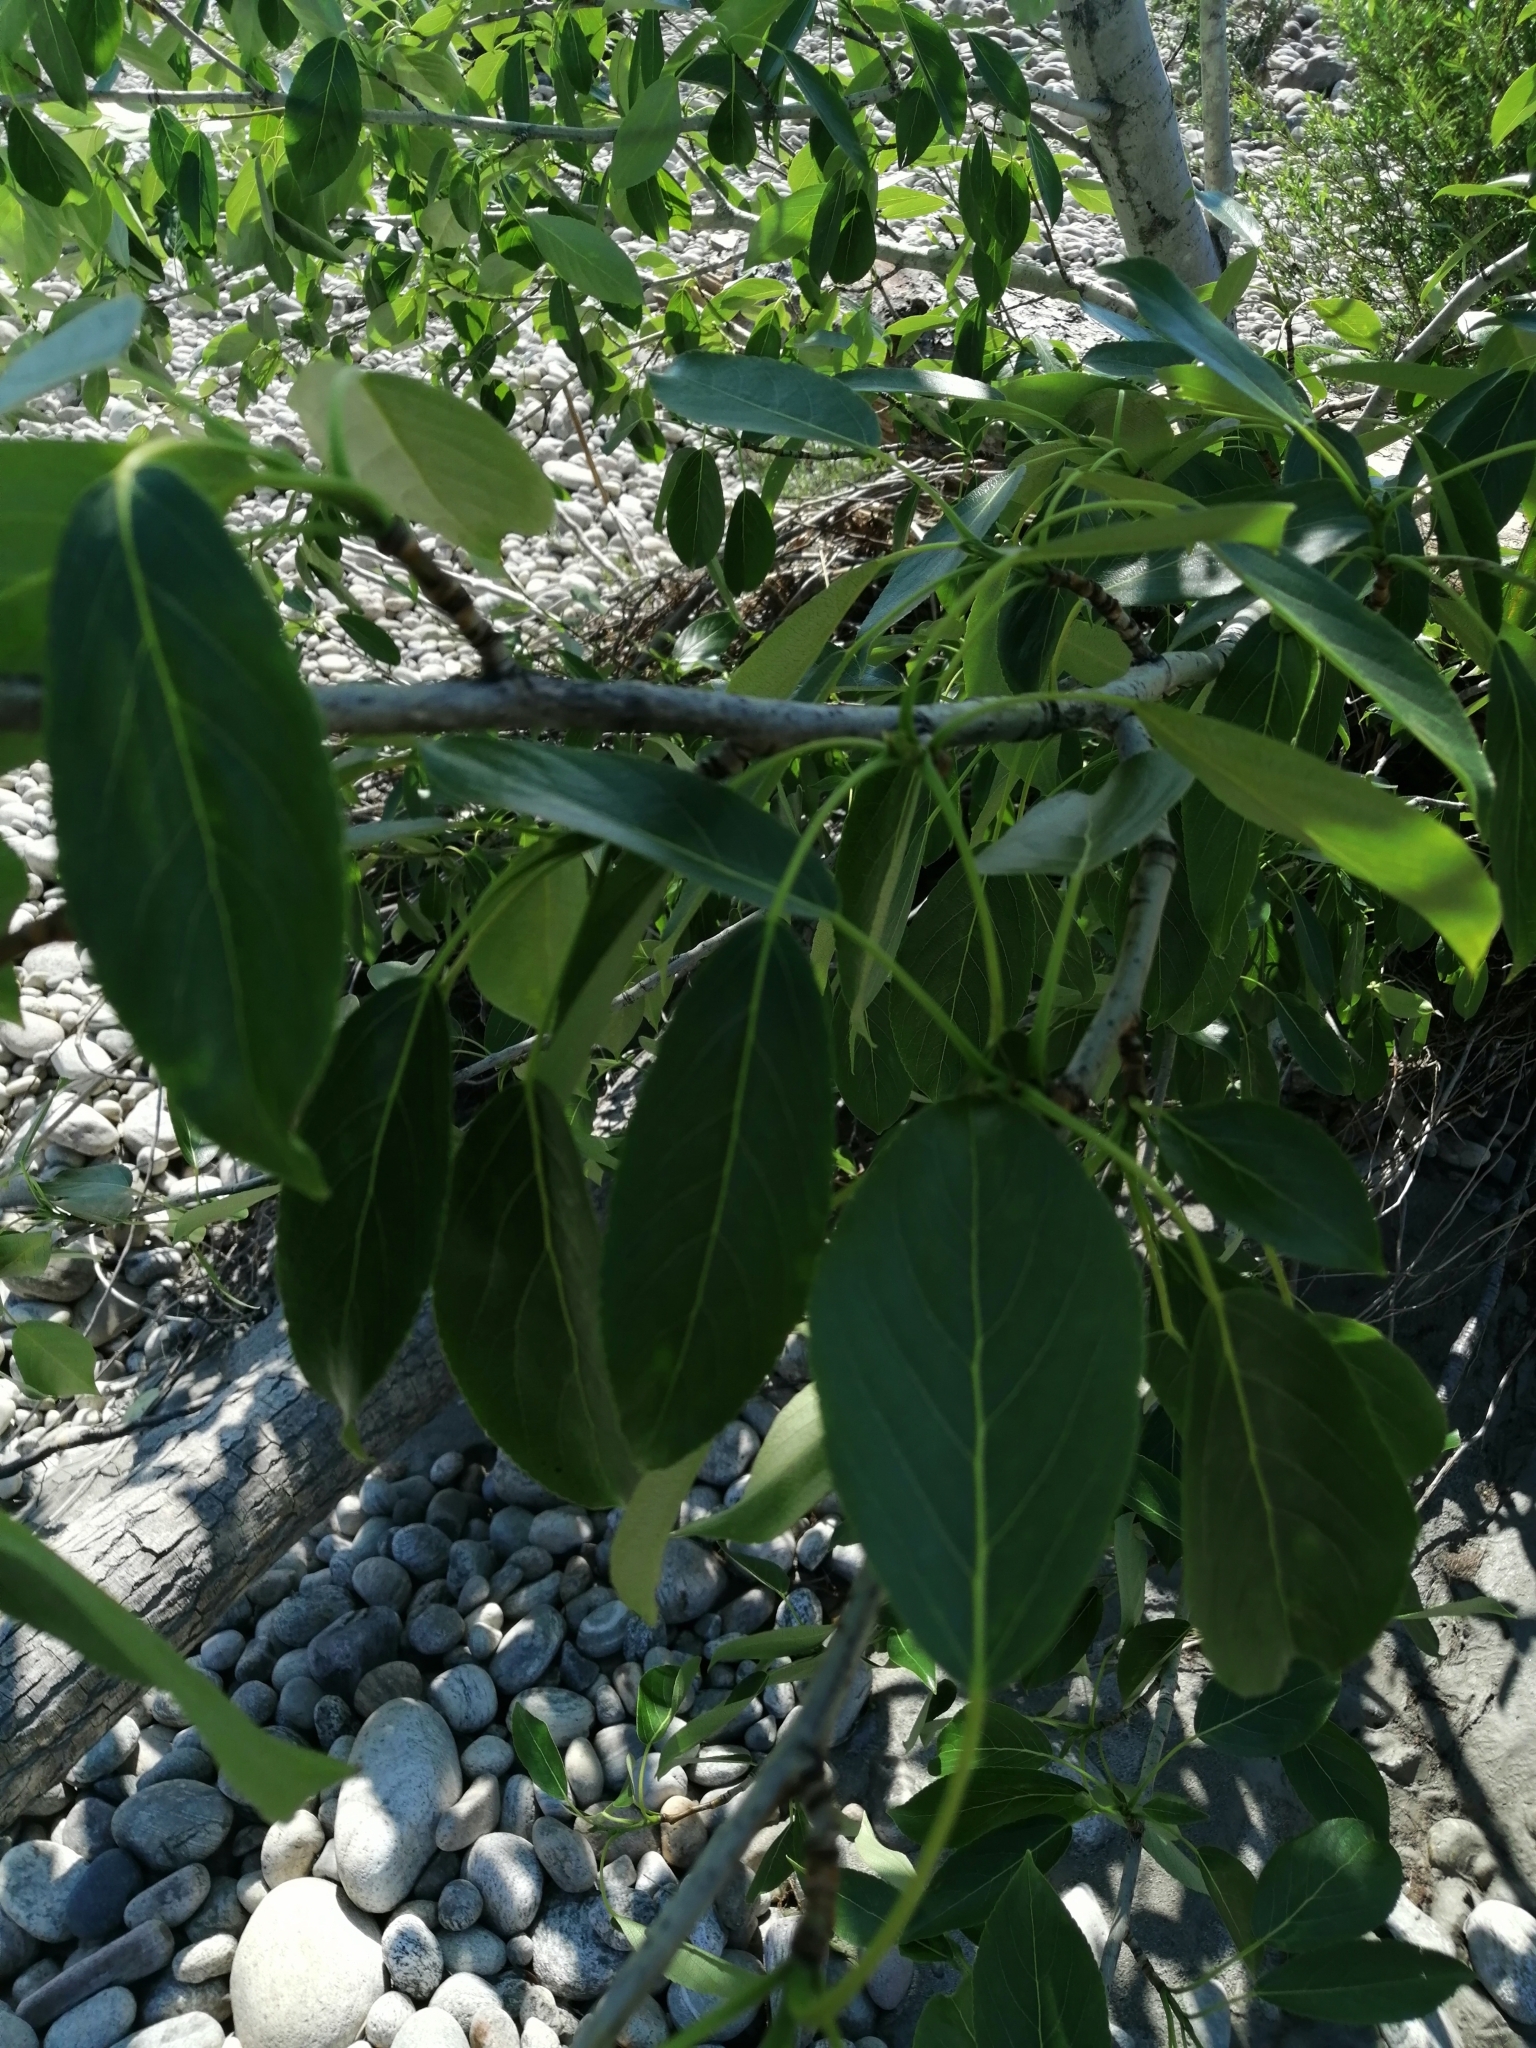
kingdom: Plantae
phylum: Tracheophyta
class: Magnoliopsida
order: Malpighiales
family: Salicaceae
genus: Populus
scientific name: Populus suaveolens
